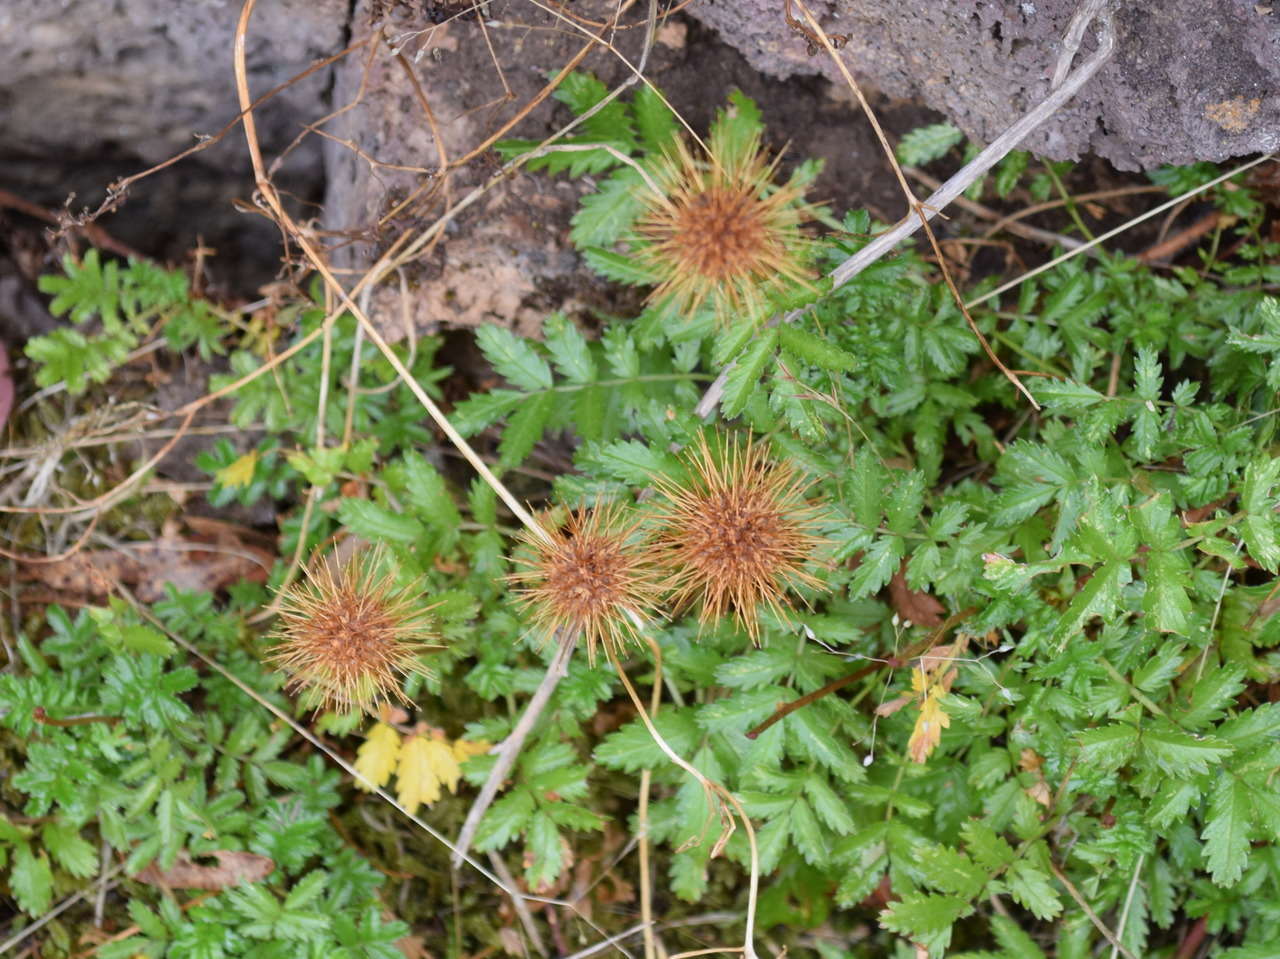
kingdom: Plantae
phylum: Tracheophyta
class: Magnoliopsida
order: Rosales
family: Rosaceae
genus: Acaena
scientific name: Acaena novae-zelandiae
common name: Pirri-pirri-bur
